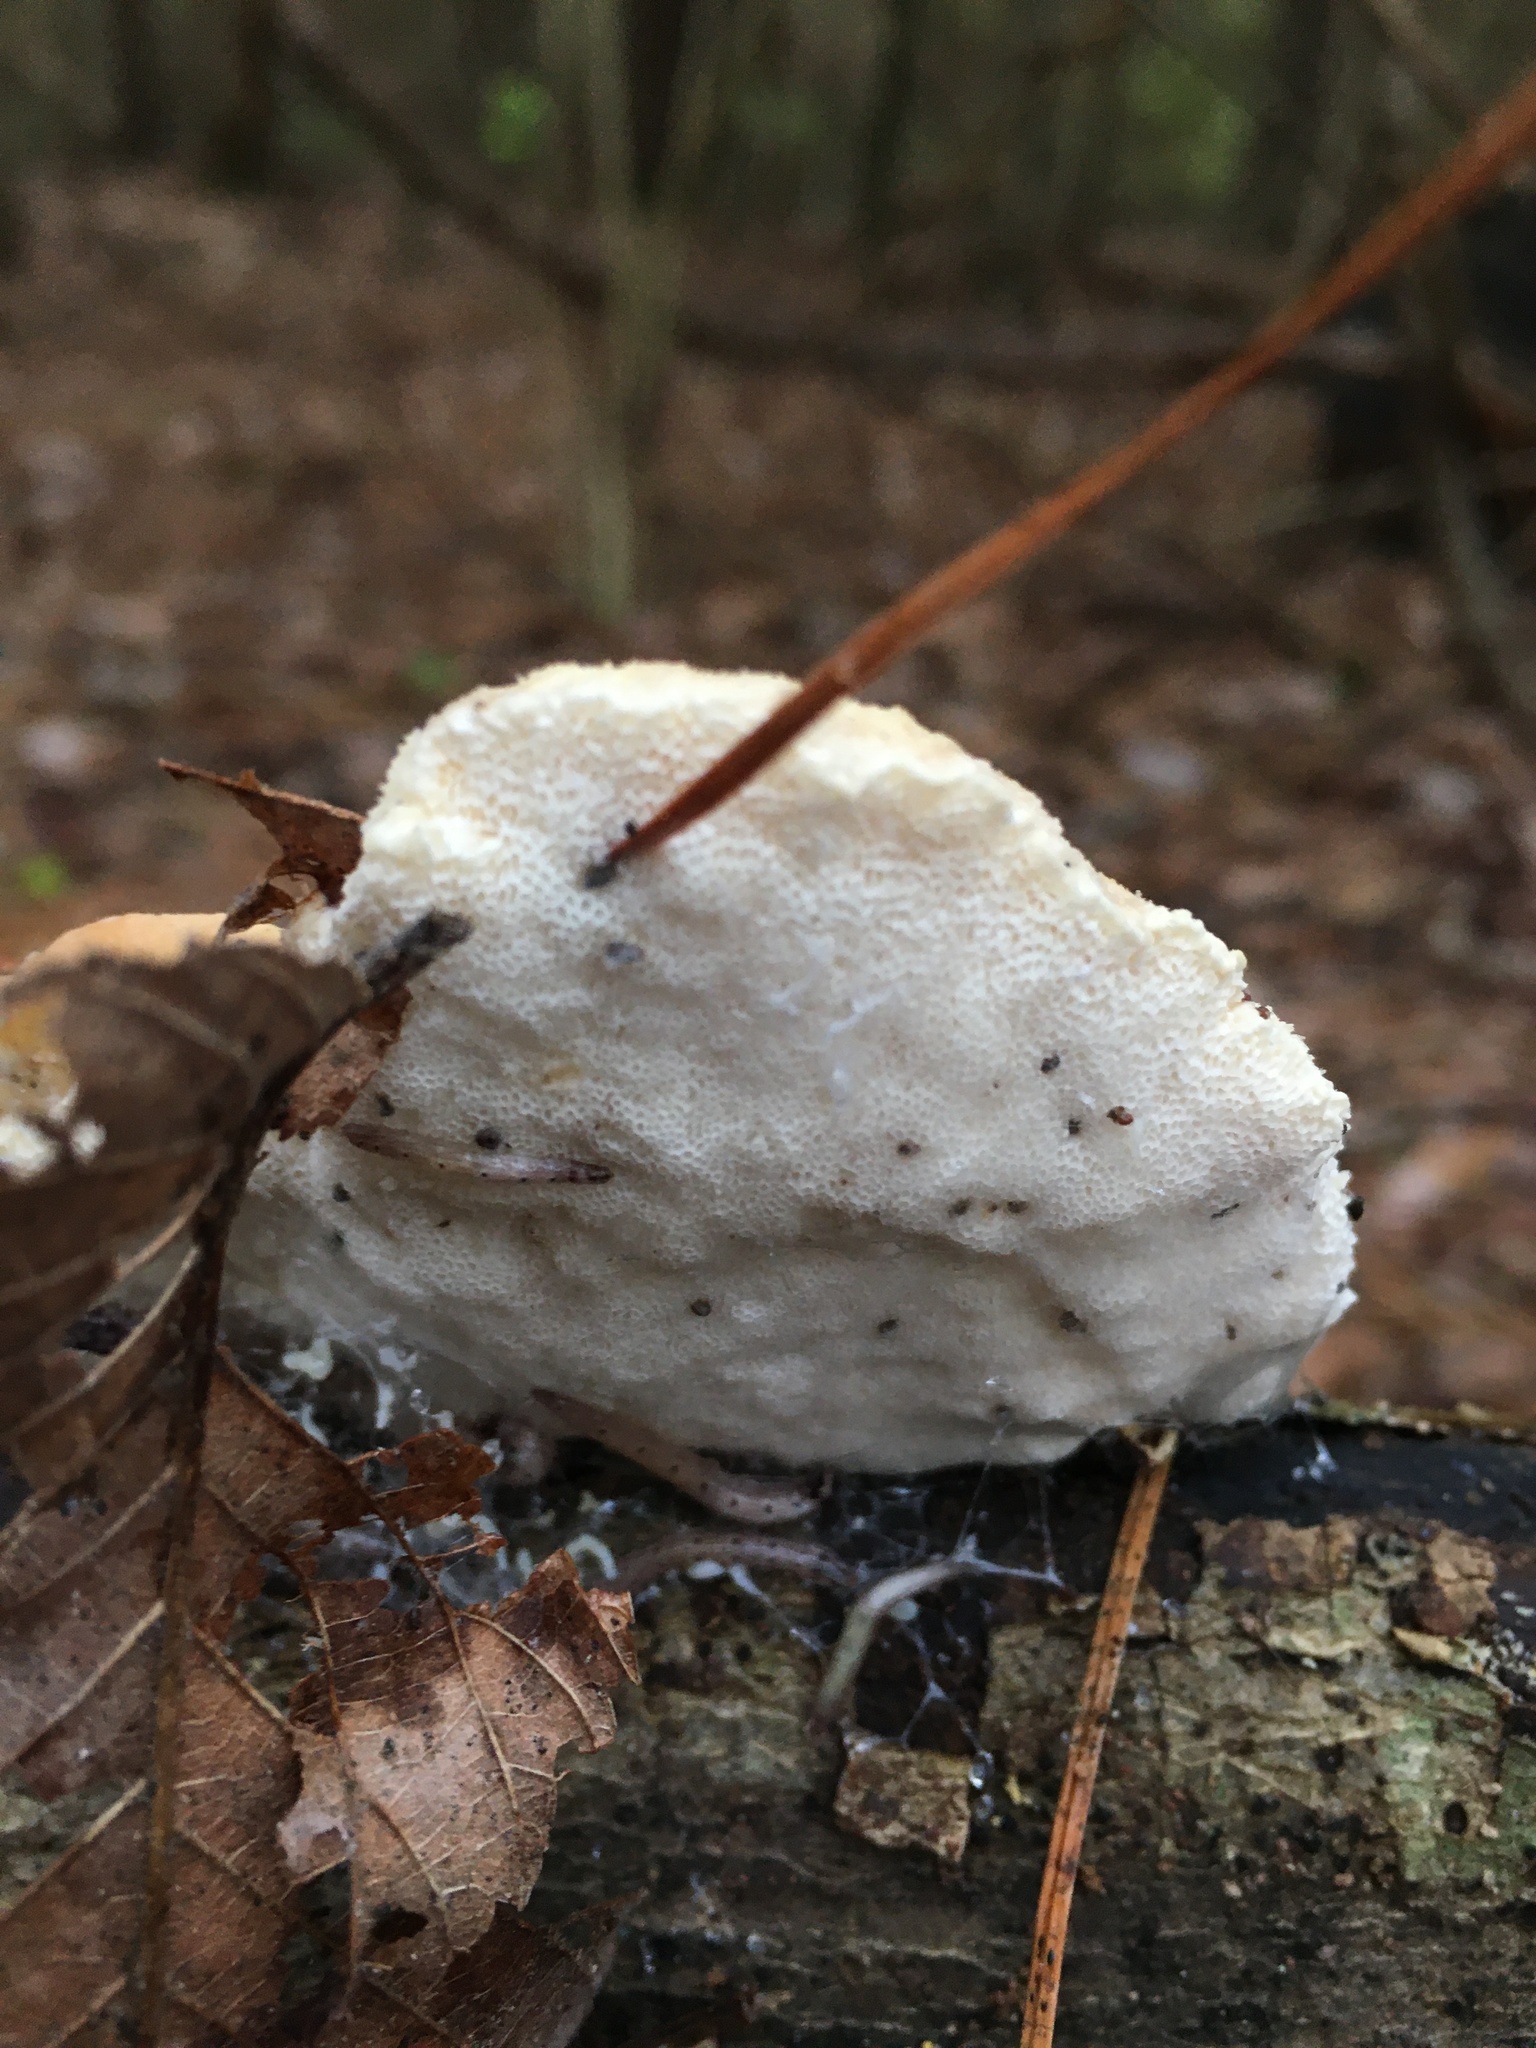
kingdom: Fungi
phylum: Basidiomycota
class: Agaricomycetes
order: Polyporales
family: Polyporaceae
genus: Trametes
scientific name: Trametes lactinea
